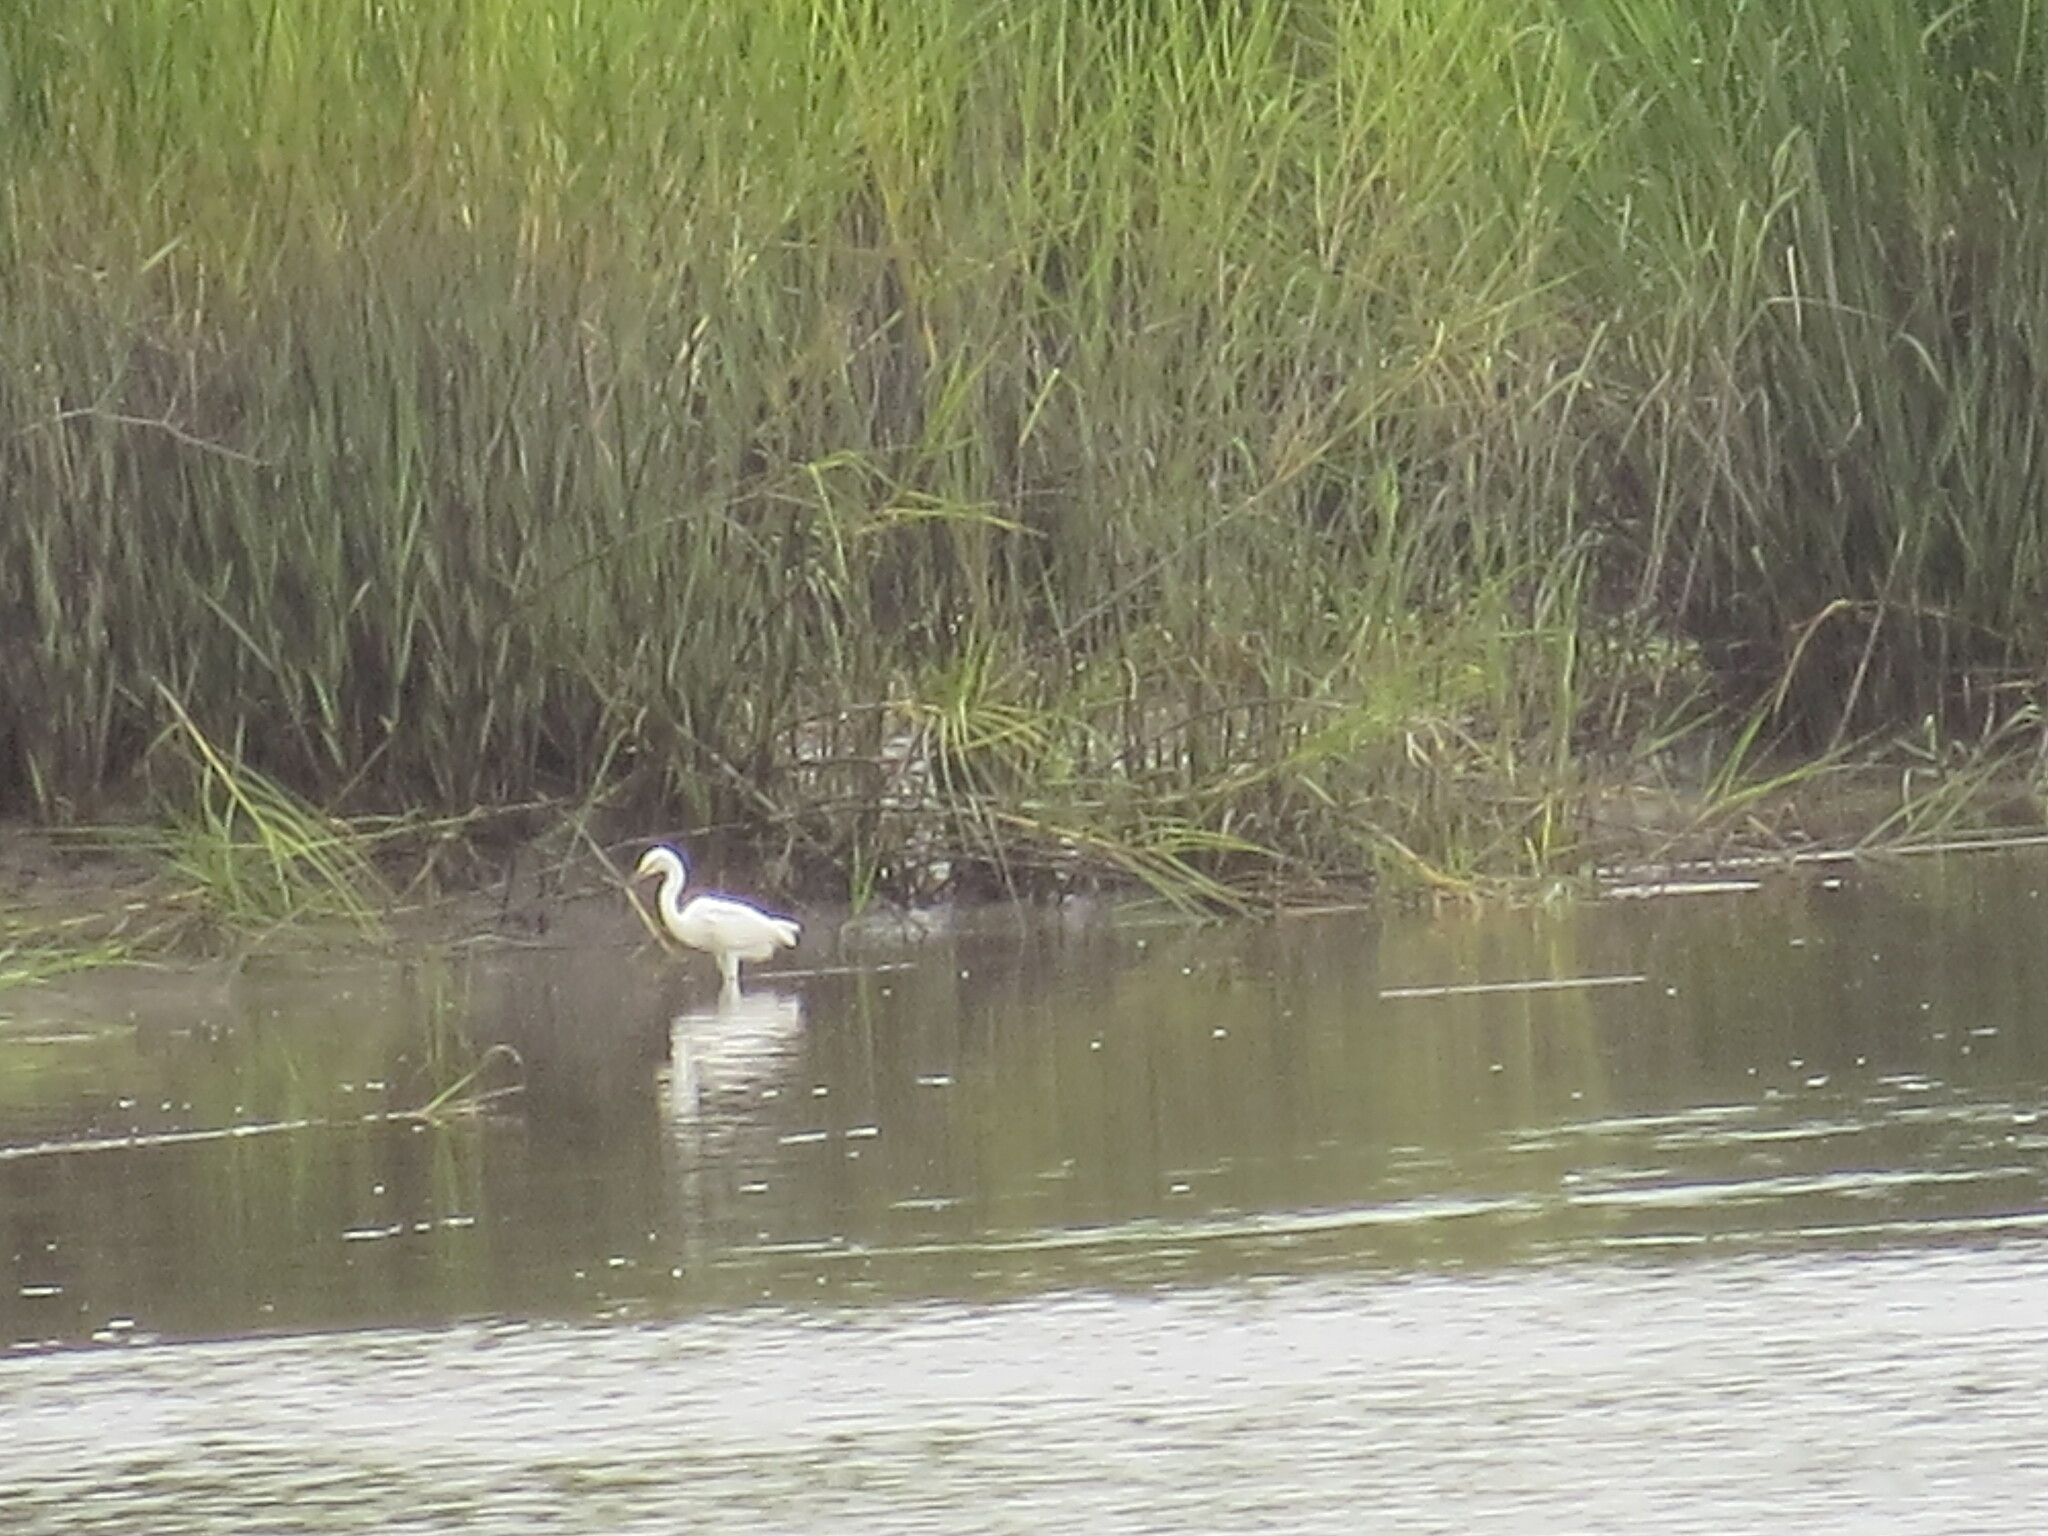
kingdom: Animalia
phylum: Chordata
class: Aves
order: Pelecaniformes
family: Ardeidae
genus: Egretta
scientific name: Egretta thula
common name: Snowy egret
